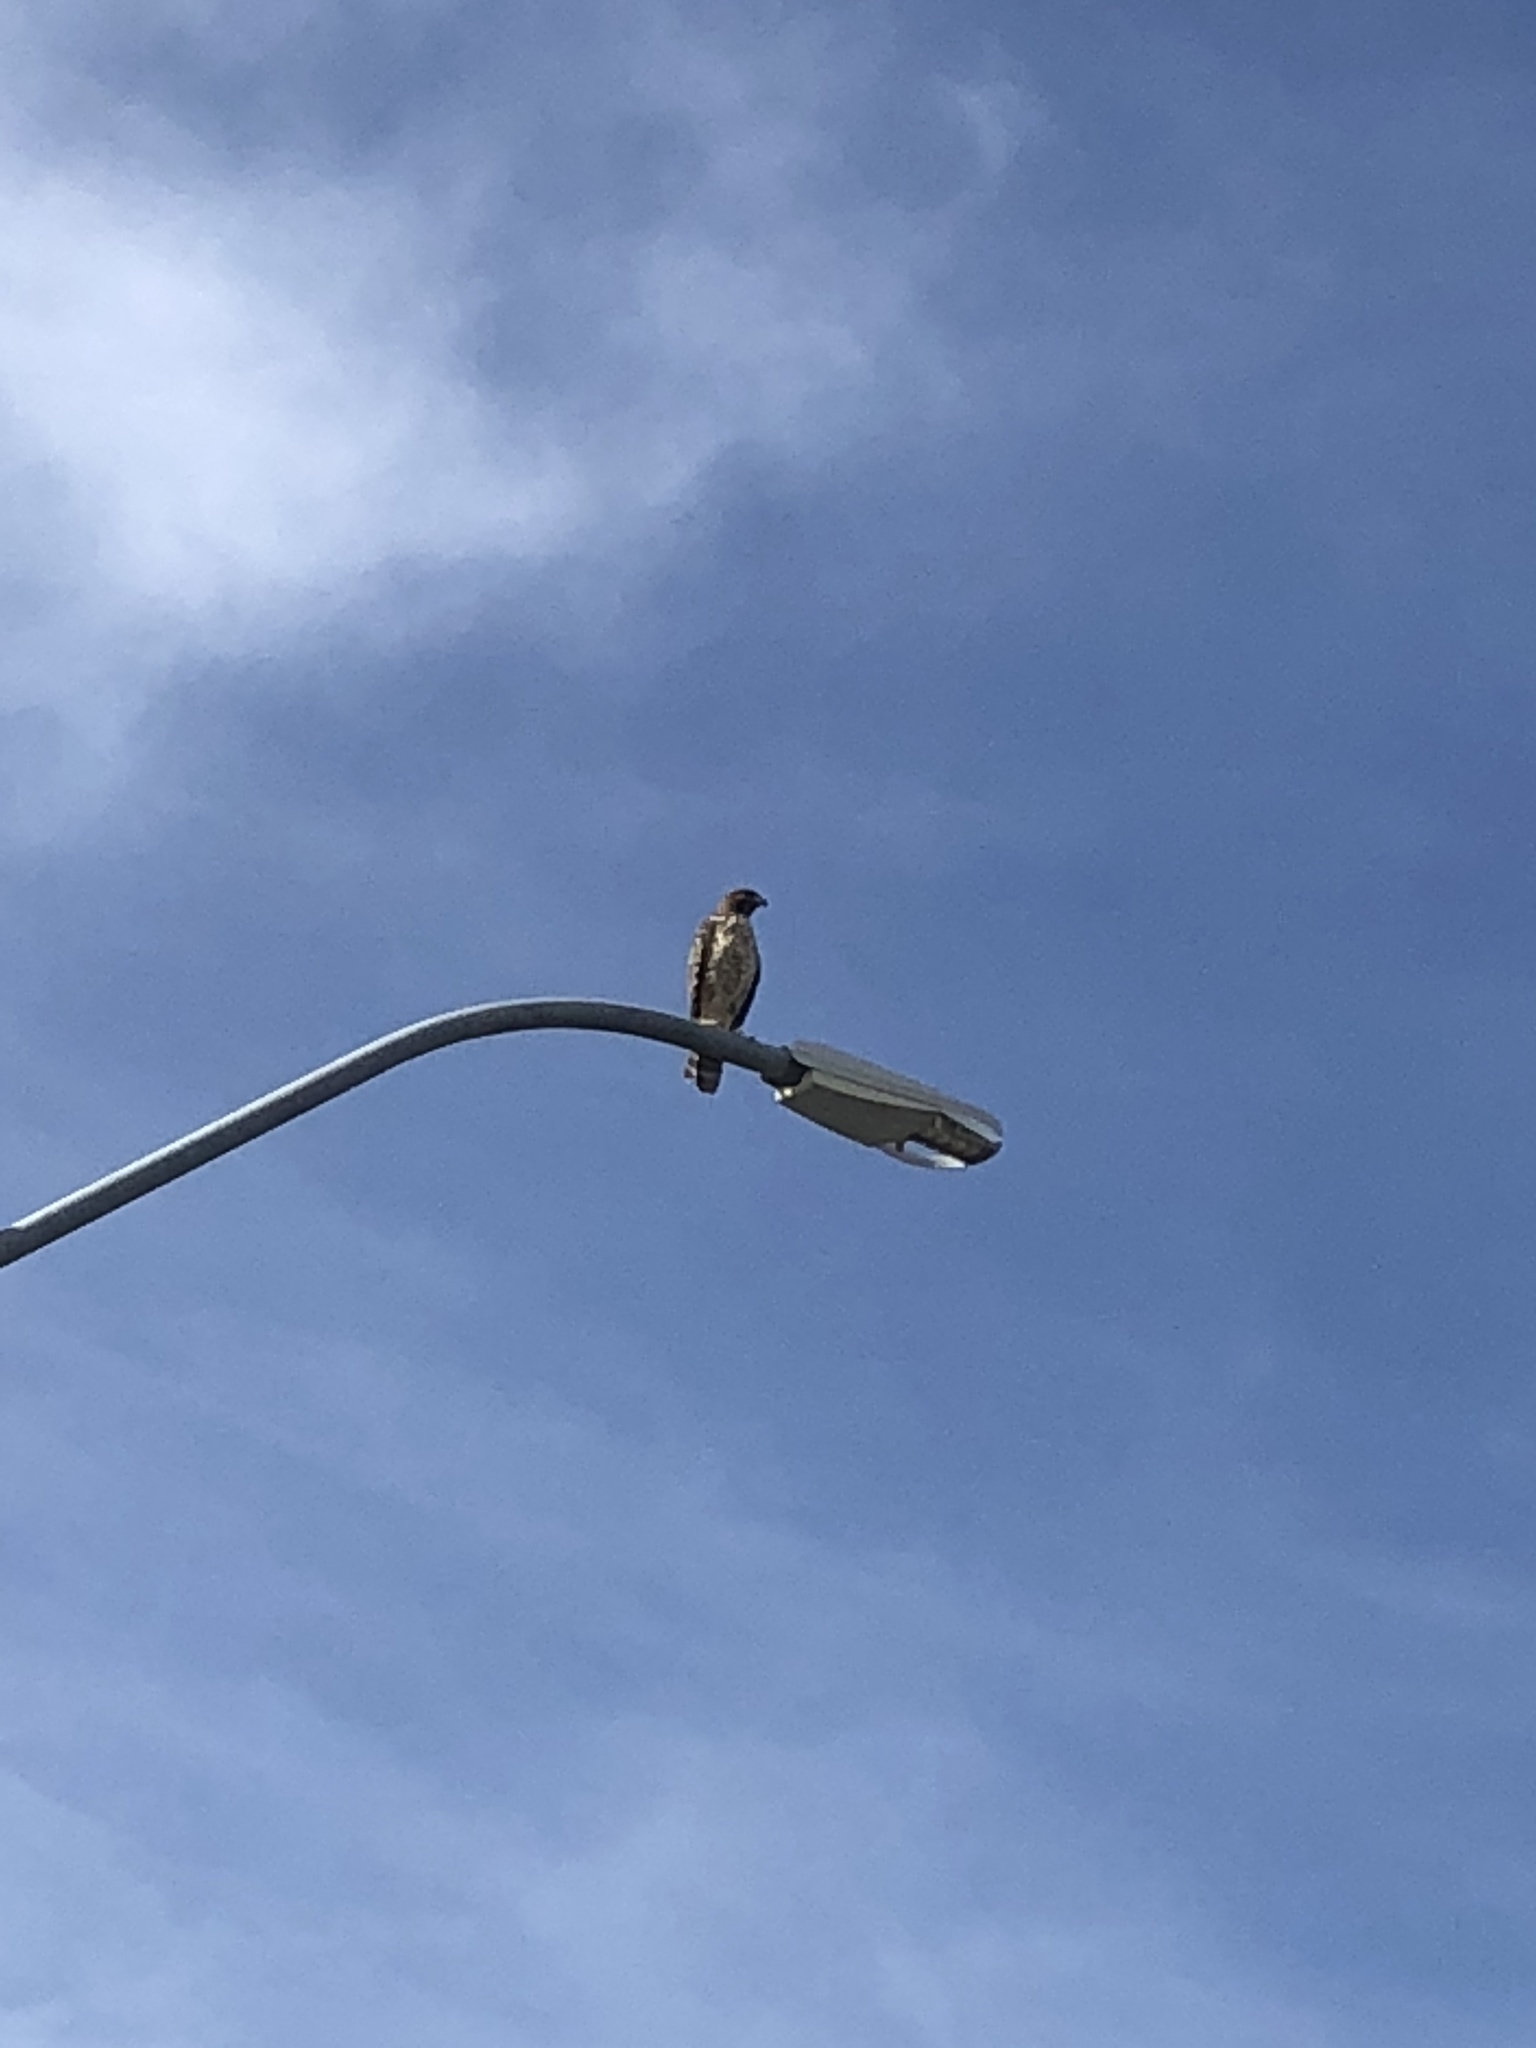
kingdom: Animalia
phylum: Chordata
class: Aves
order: Accipitriformes
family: Accipitridae
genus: Buteo
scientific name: Buteo lineatus
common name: Red-shouldered hawk
